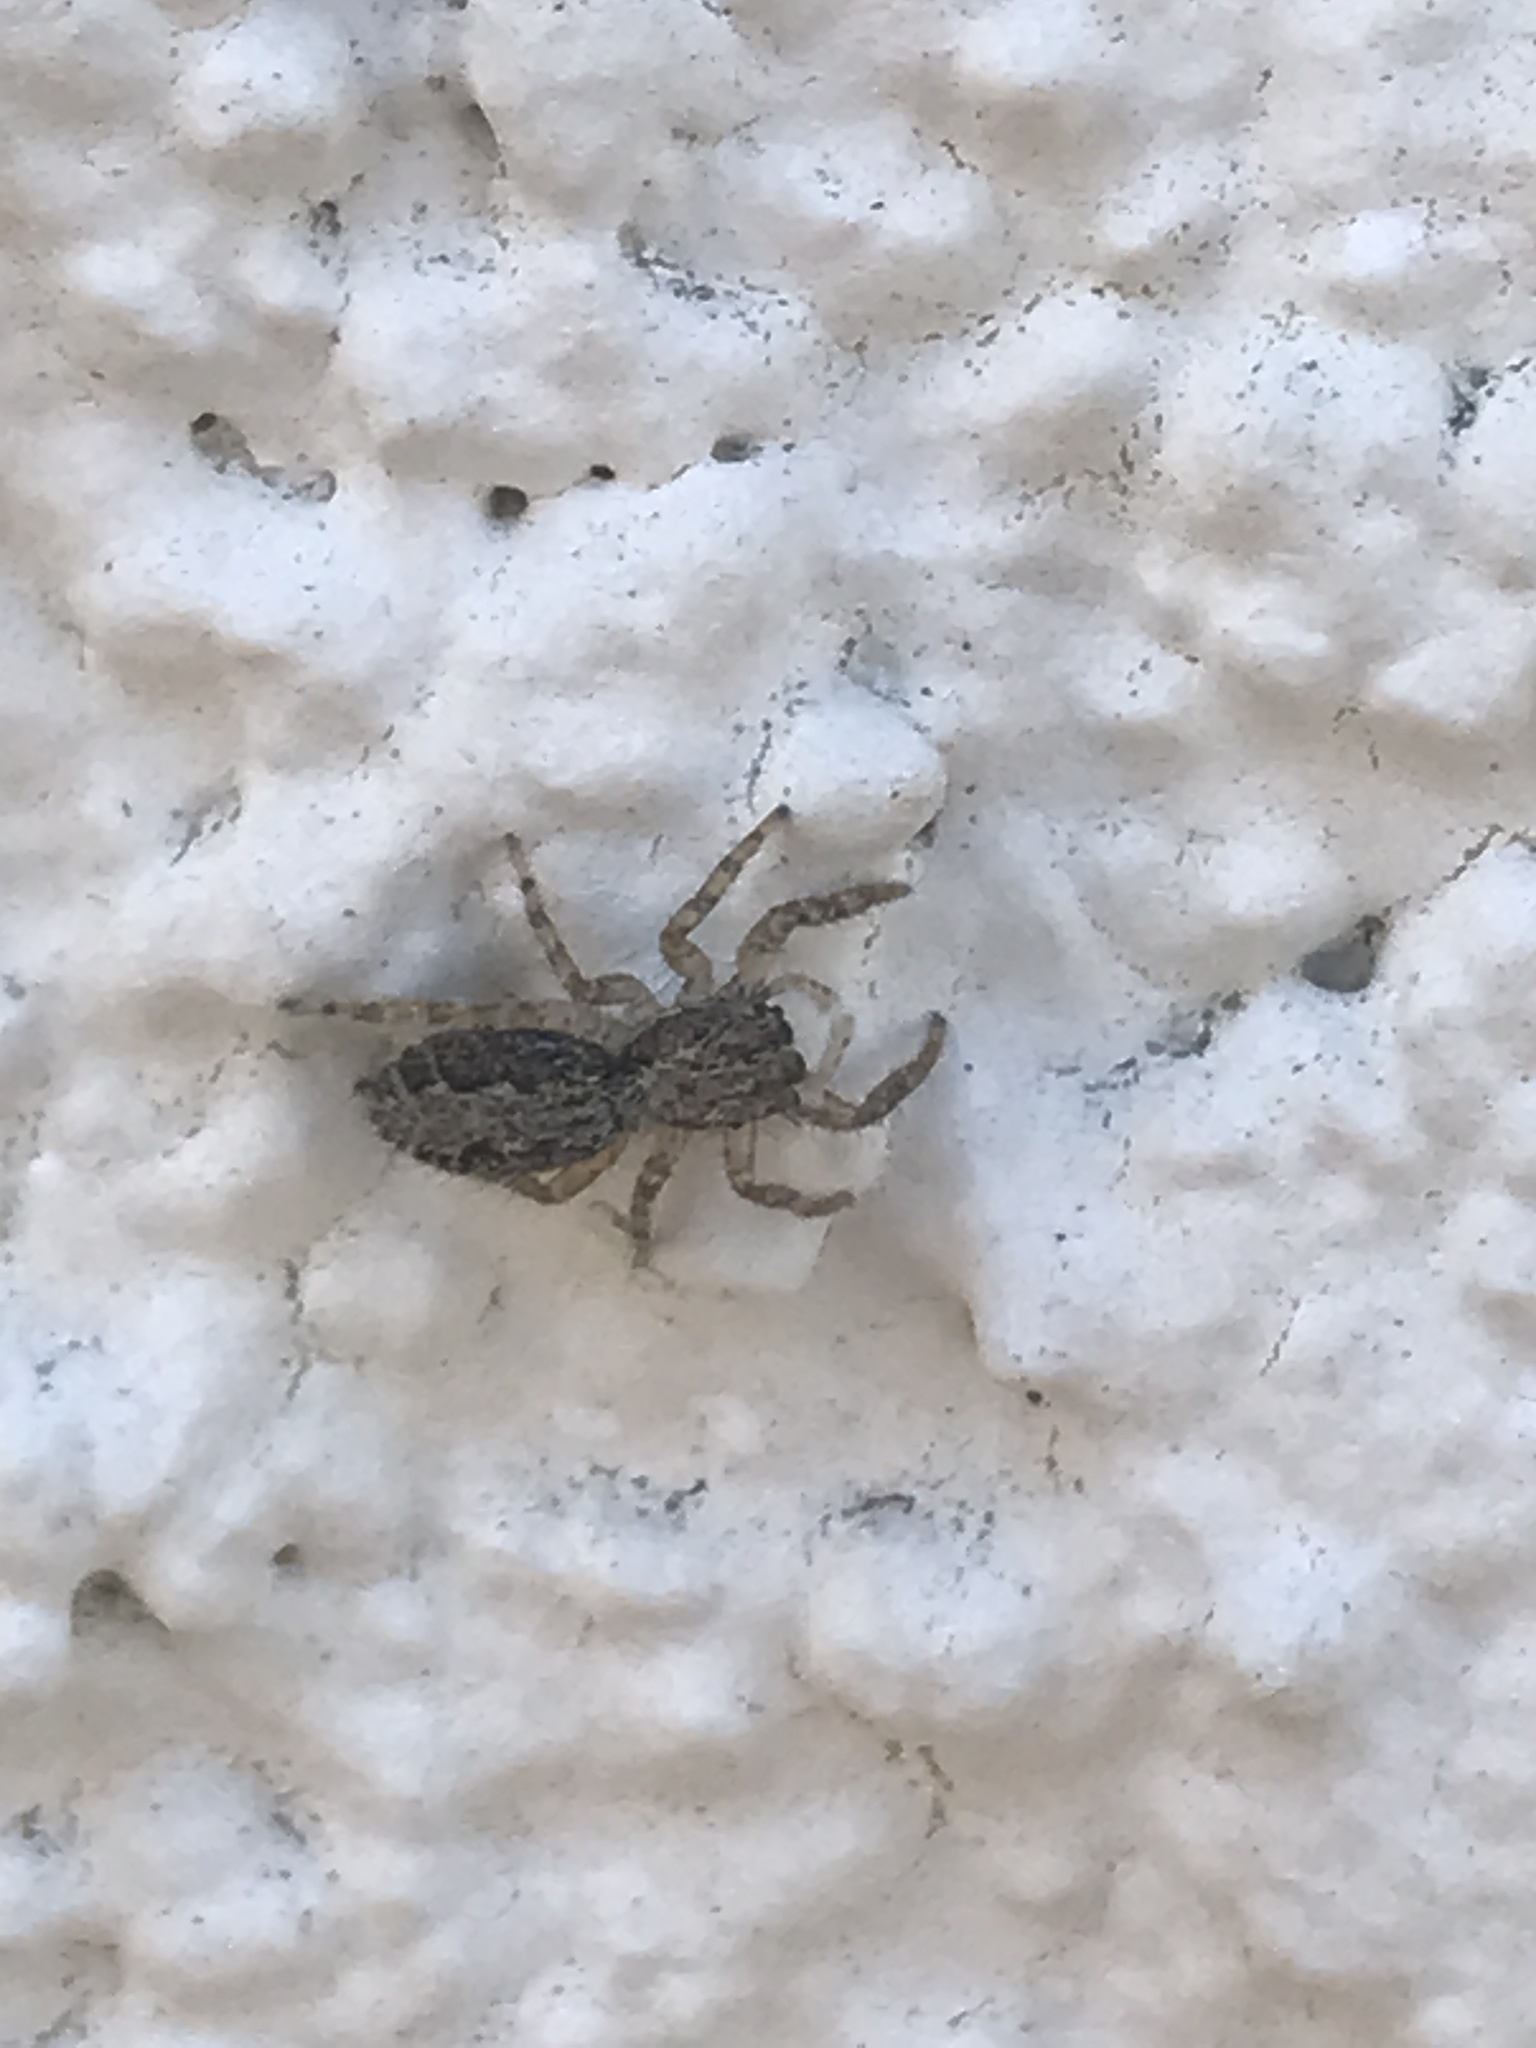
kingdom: Animalia
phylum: Arthropoda
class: Arachnida
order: Araneae
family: Salticidae
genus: Platycryptus
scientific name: Platycryptus californicus
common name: Jumping spiders
